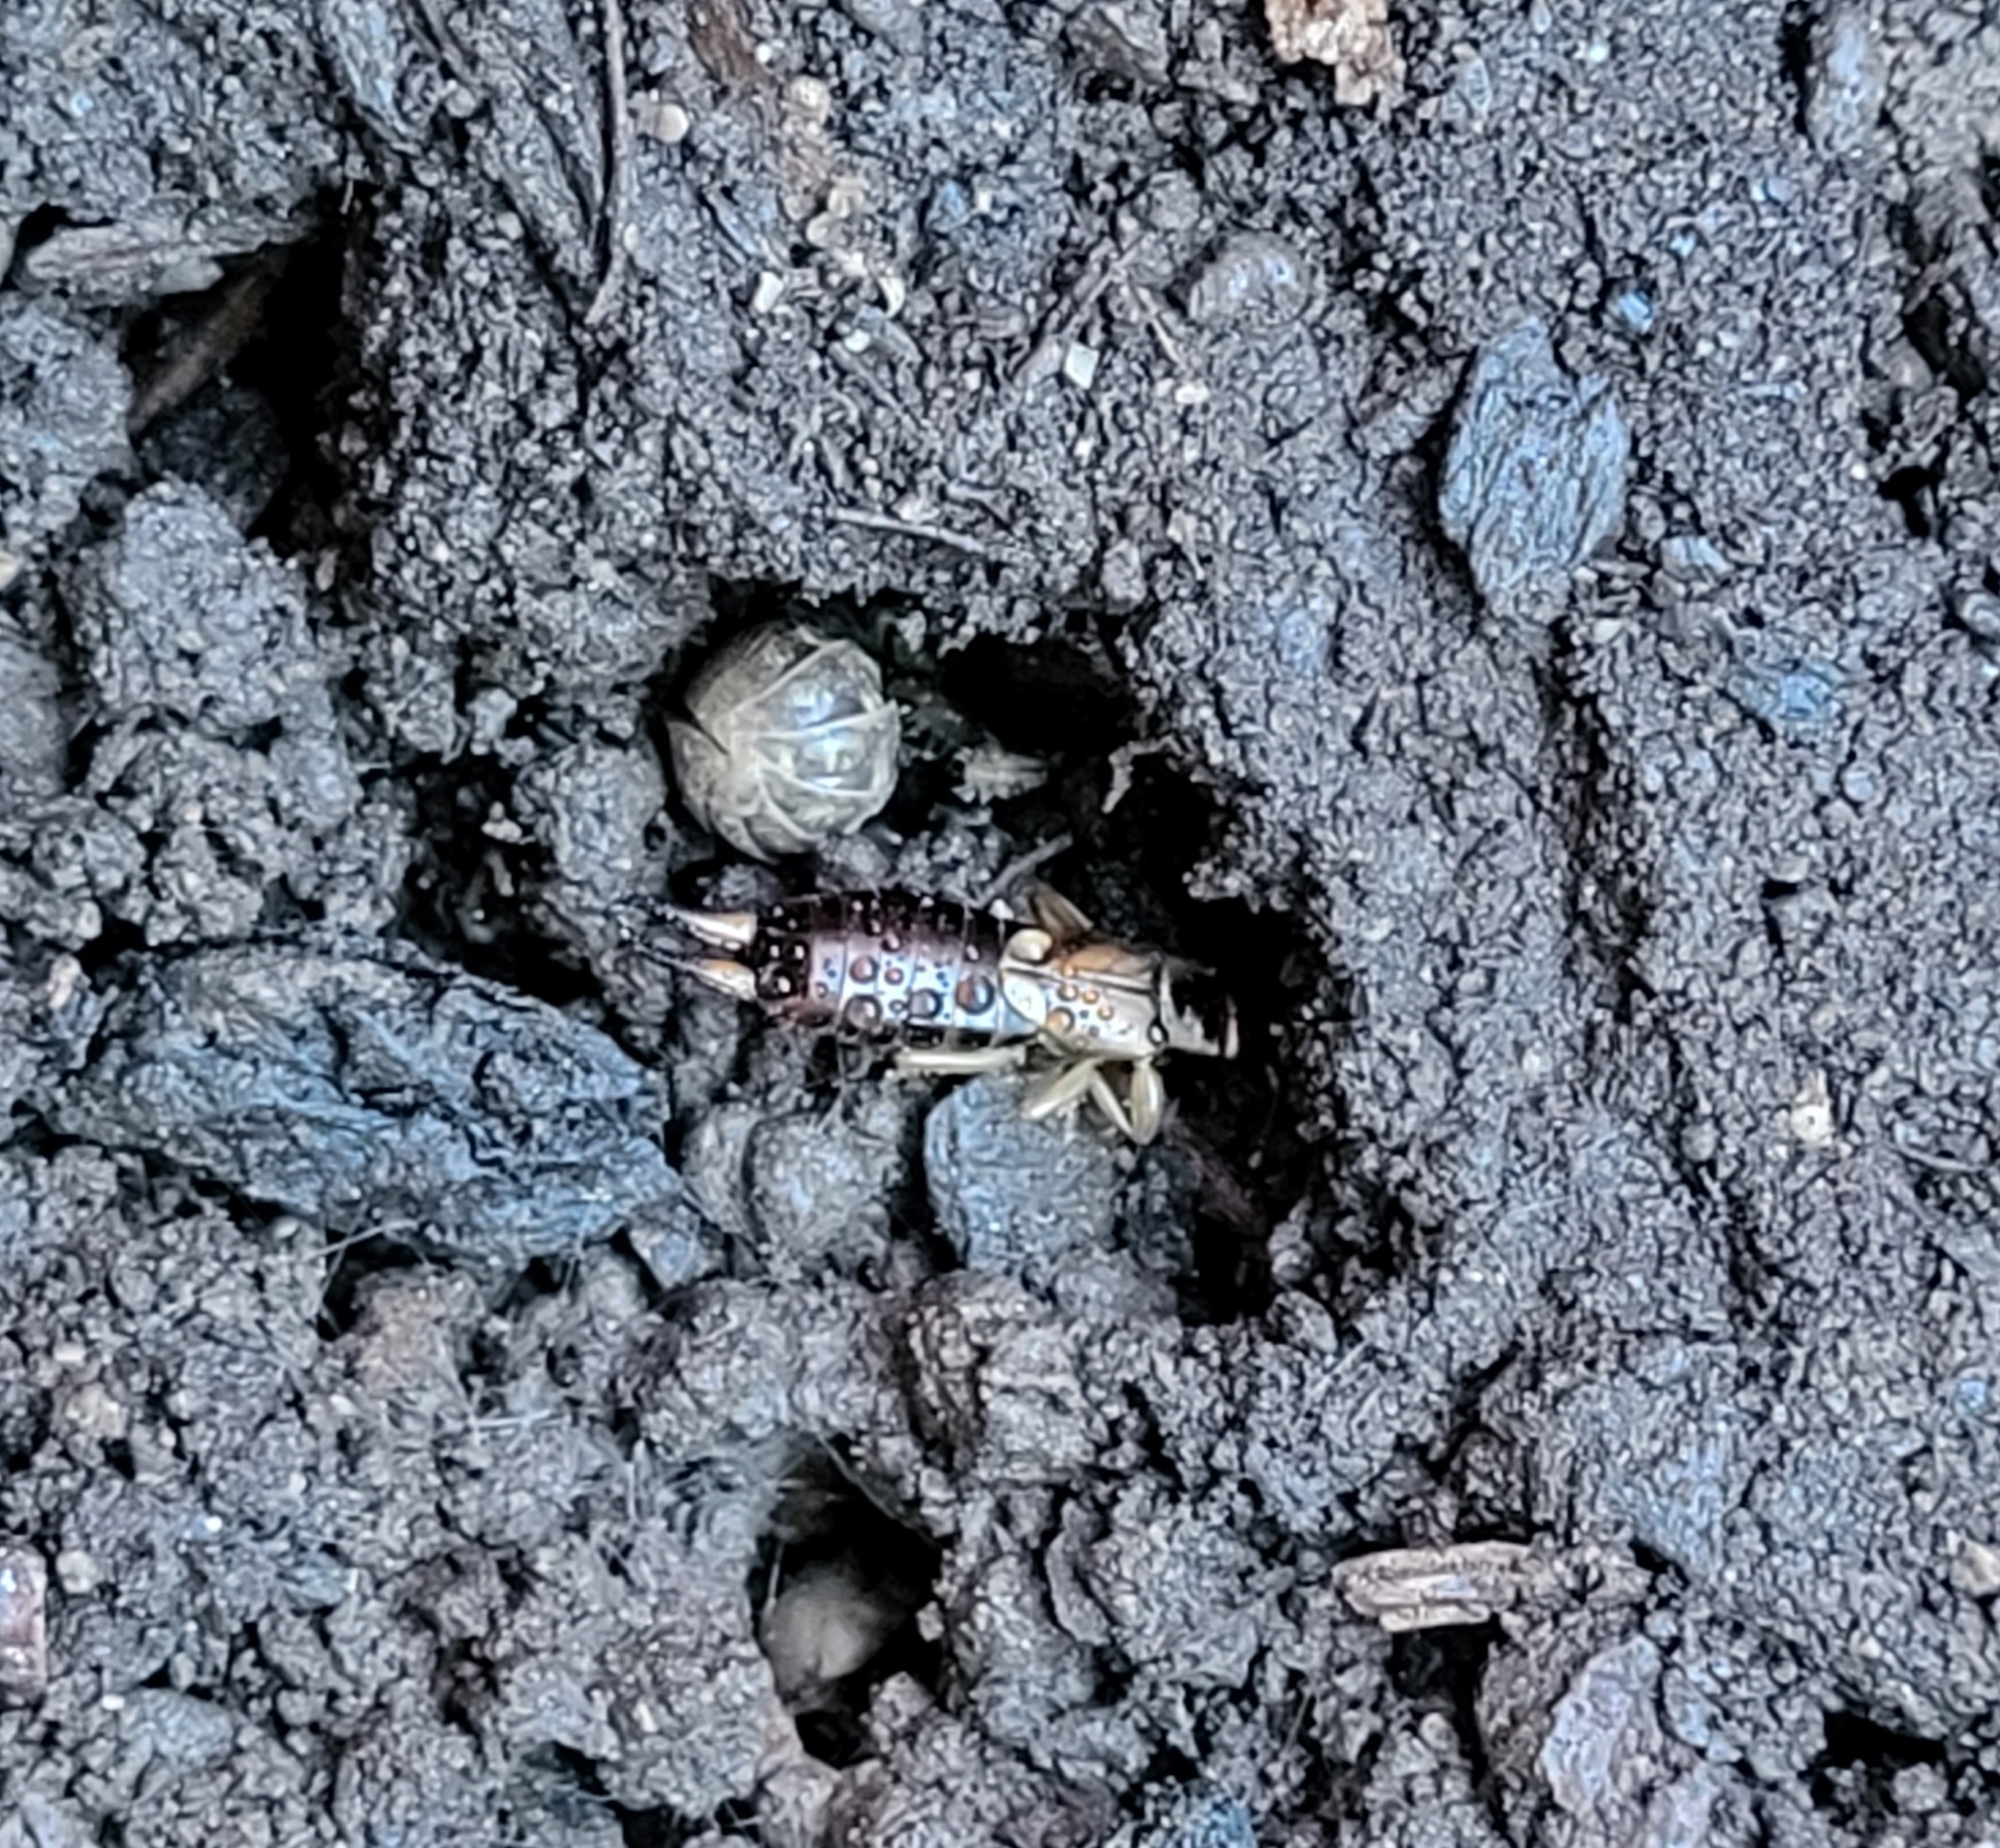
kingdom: Animalia
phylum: Arthropoda
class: Insecta
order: Dermaptera
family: Forficulidae
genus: Forficula
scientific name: Forficula
